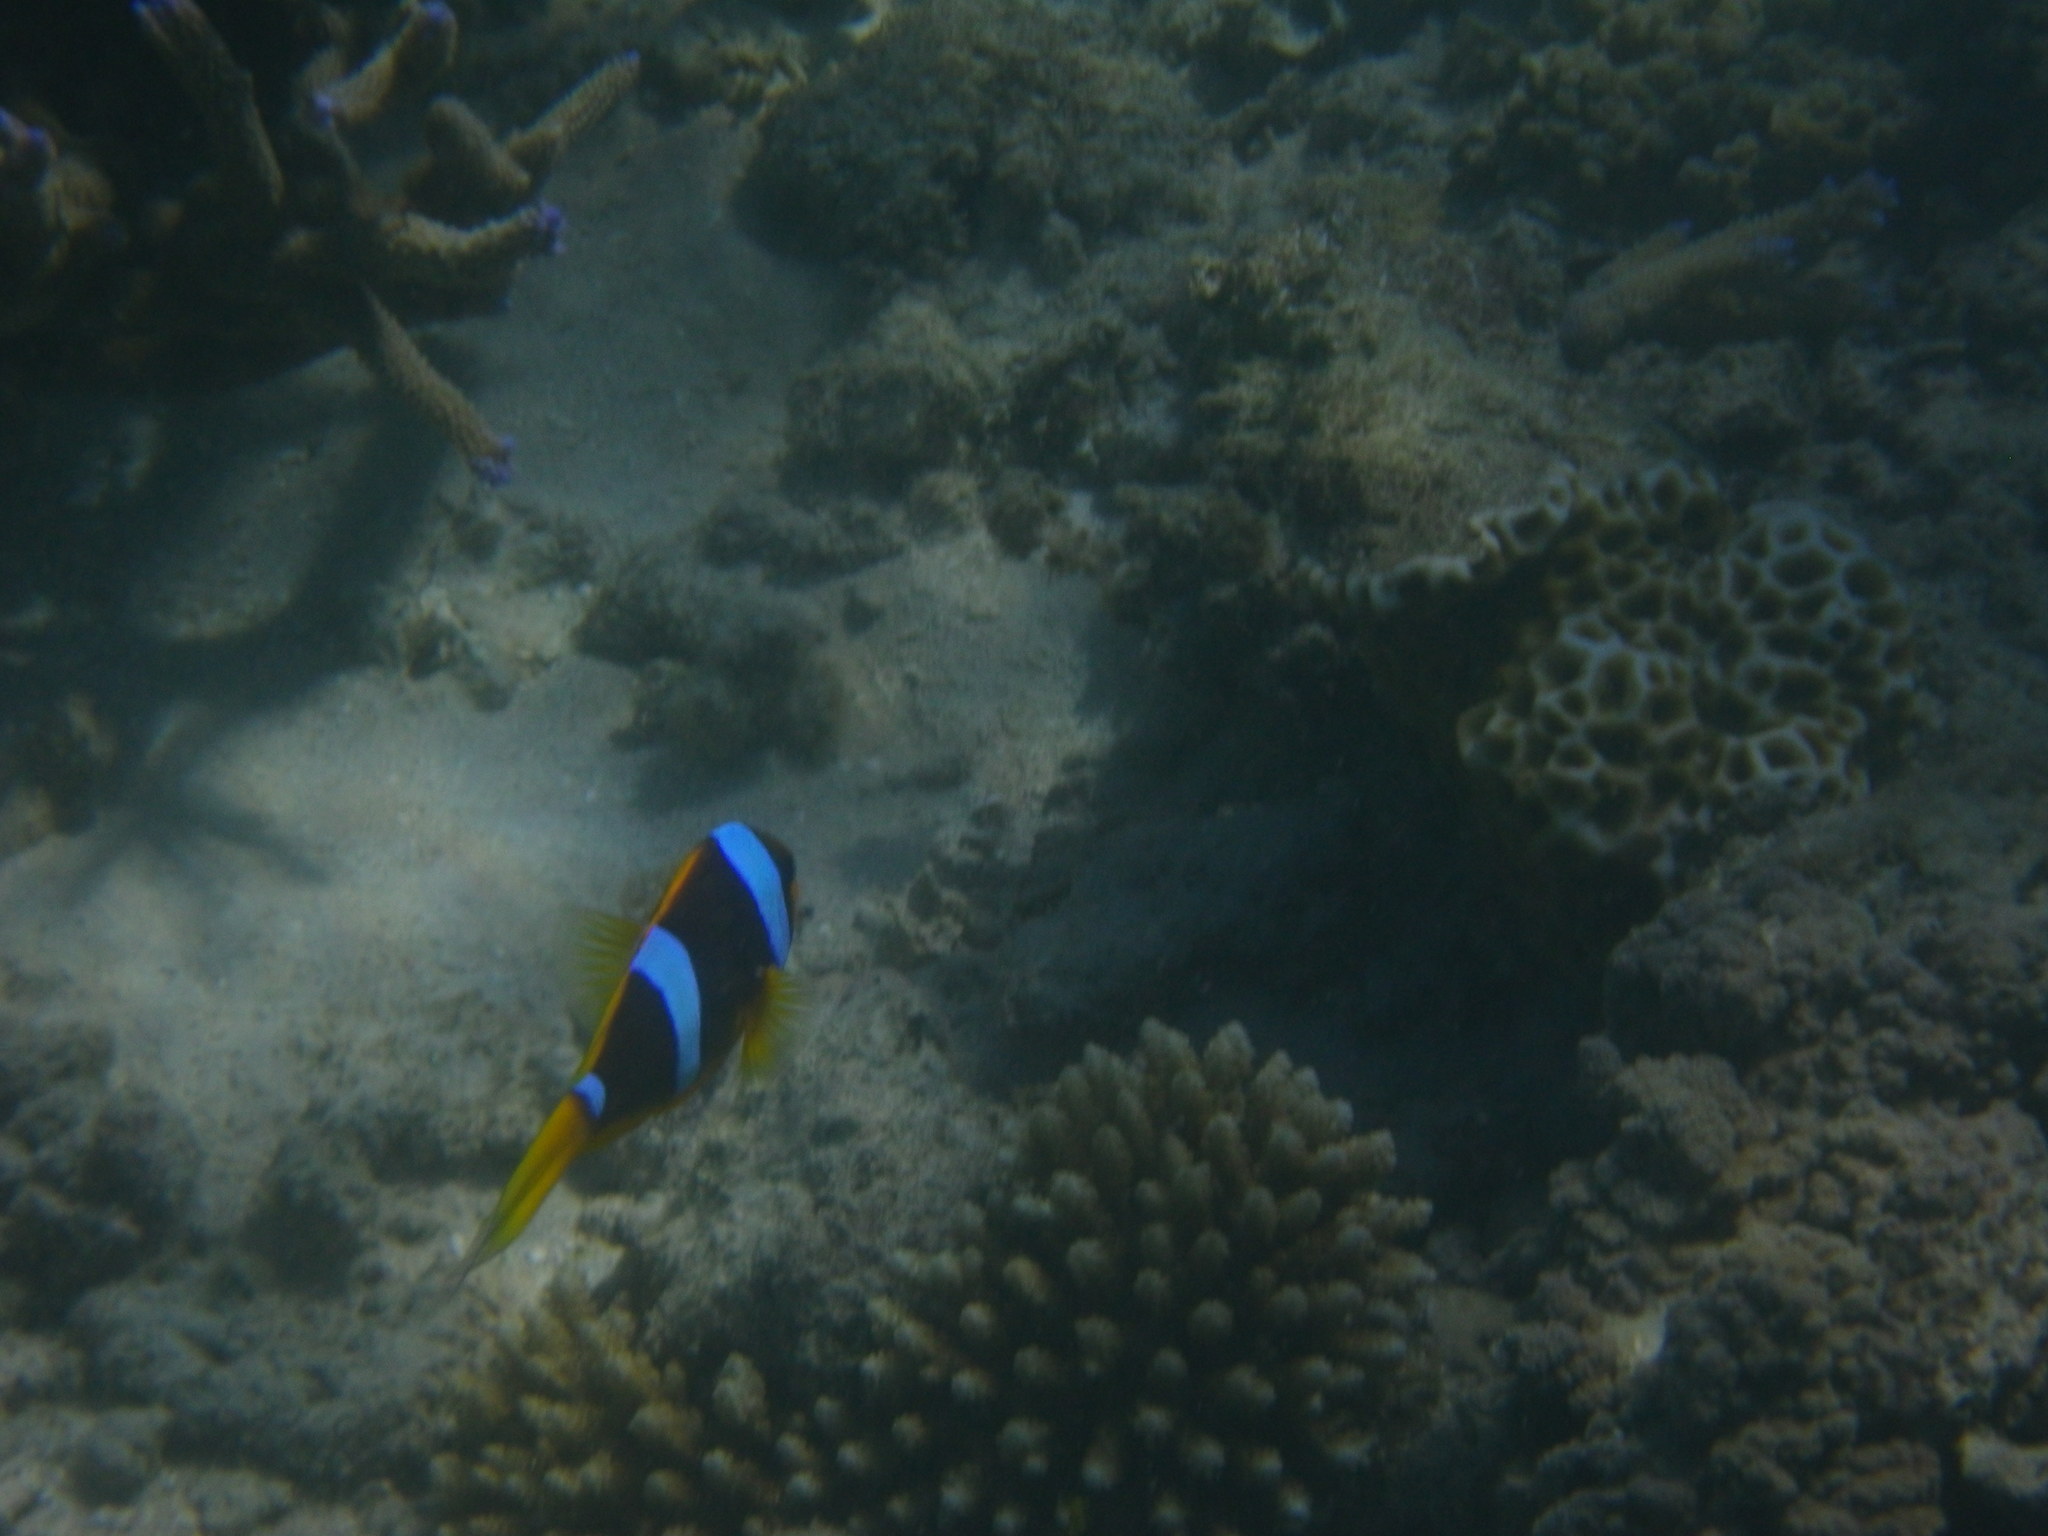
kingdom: Animalia
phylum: Chordata
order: Perciformes
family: Pomacentridae
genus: Amphiprion
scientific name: Amphiprion chrysopterus
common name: Orange-fin anemonefish
